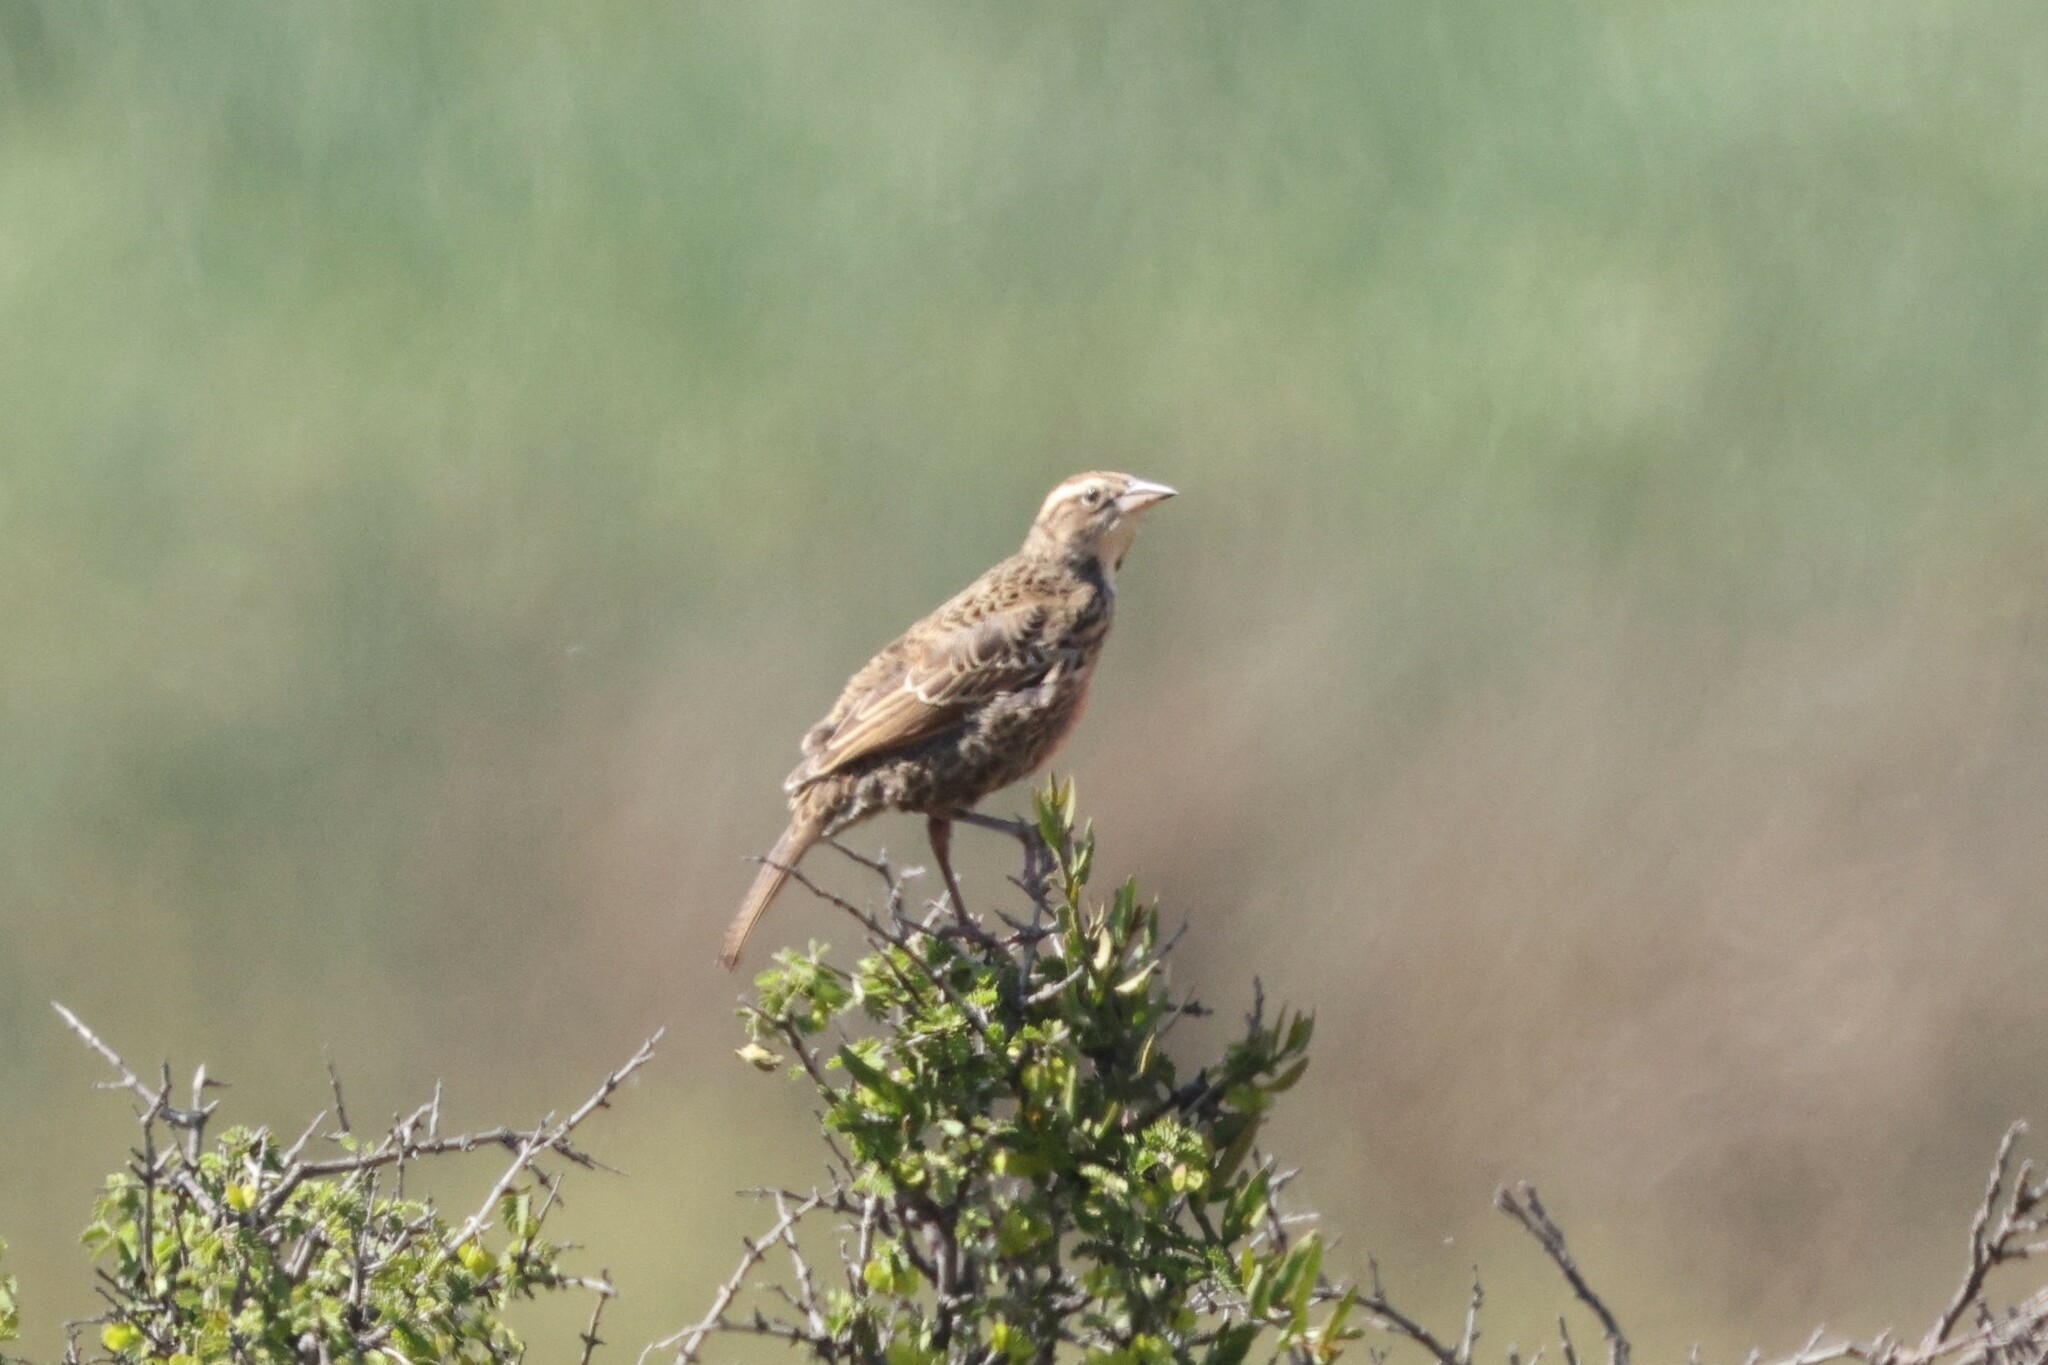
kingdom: Animalia
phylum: Chordata
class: Aves
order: Passeriformes
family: Icteridae
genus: Sturnella
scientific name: Sturnella loyca
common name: Long-tailed meadowlark
